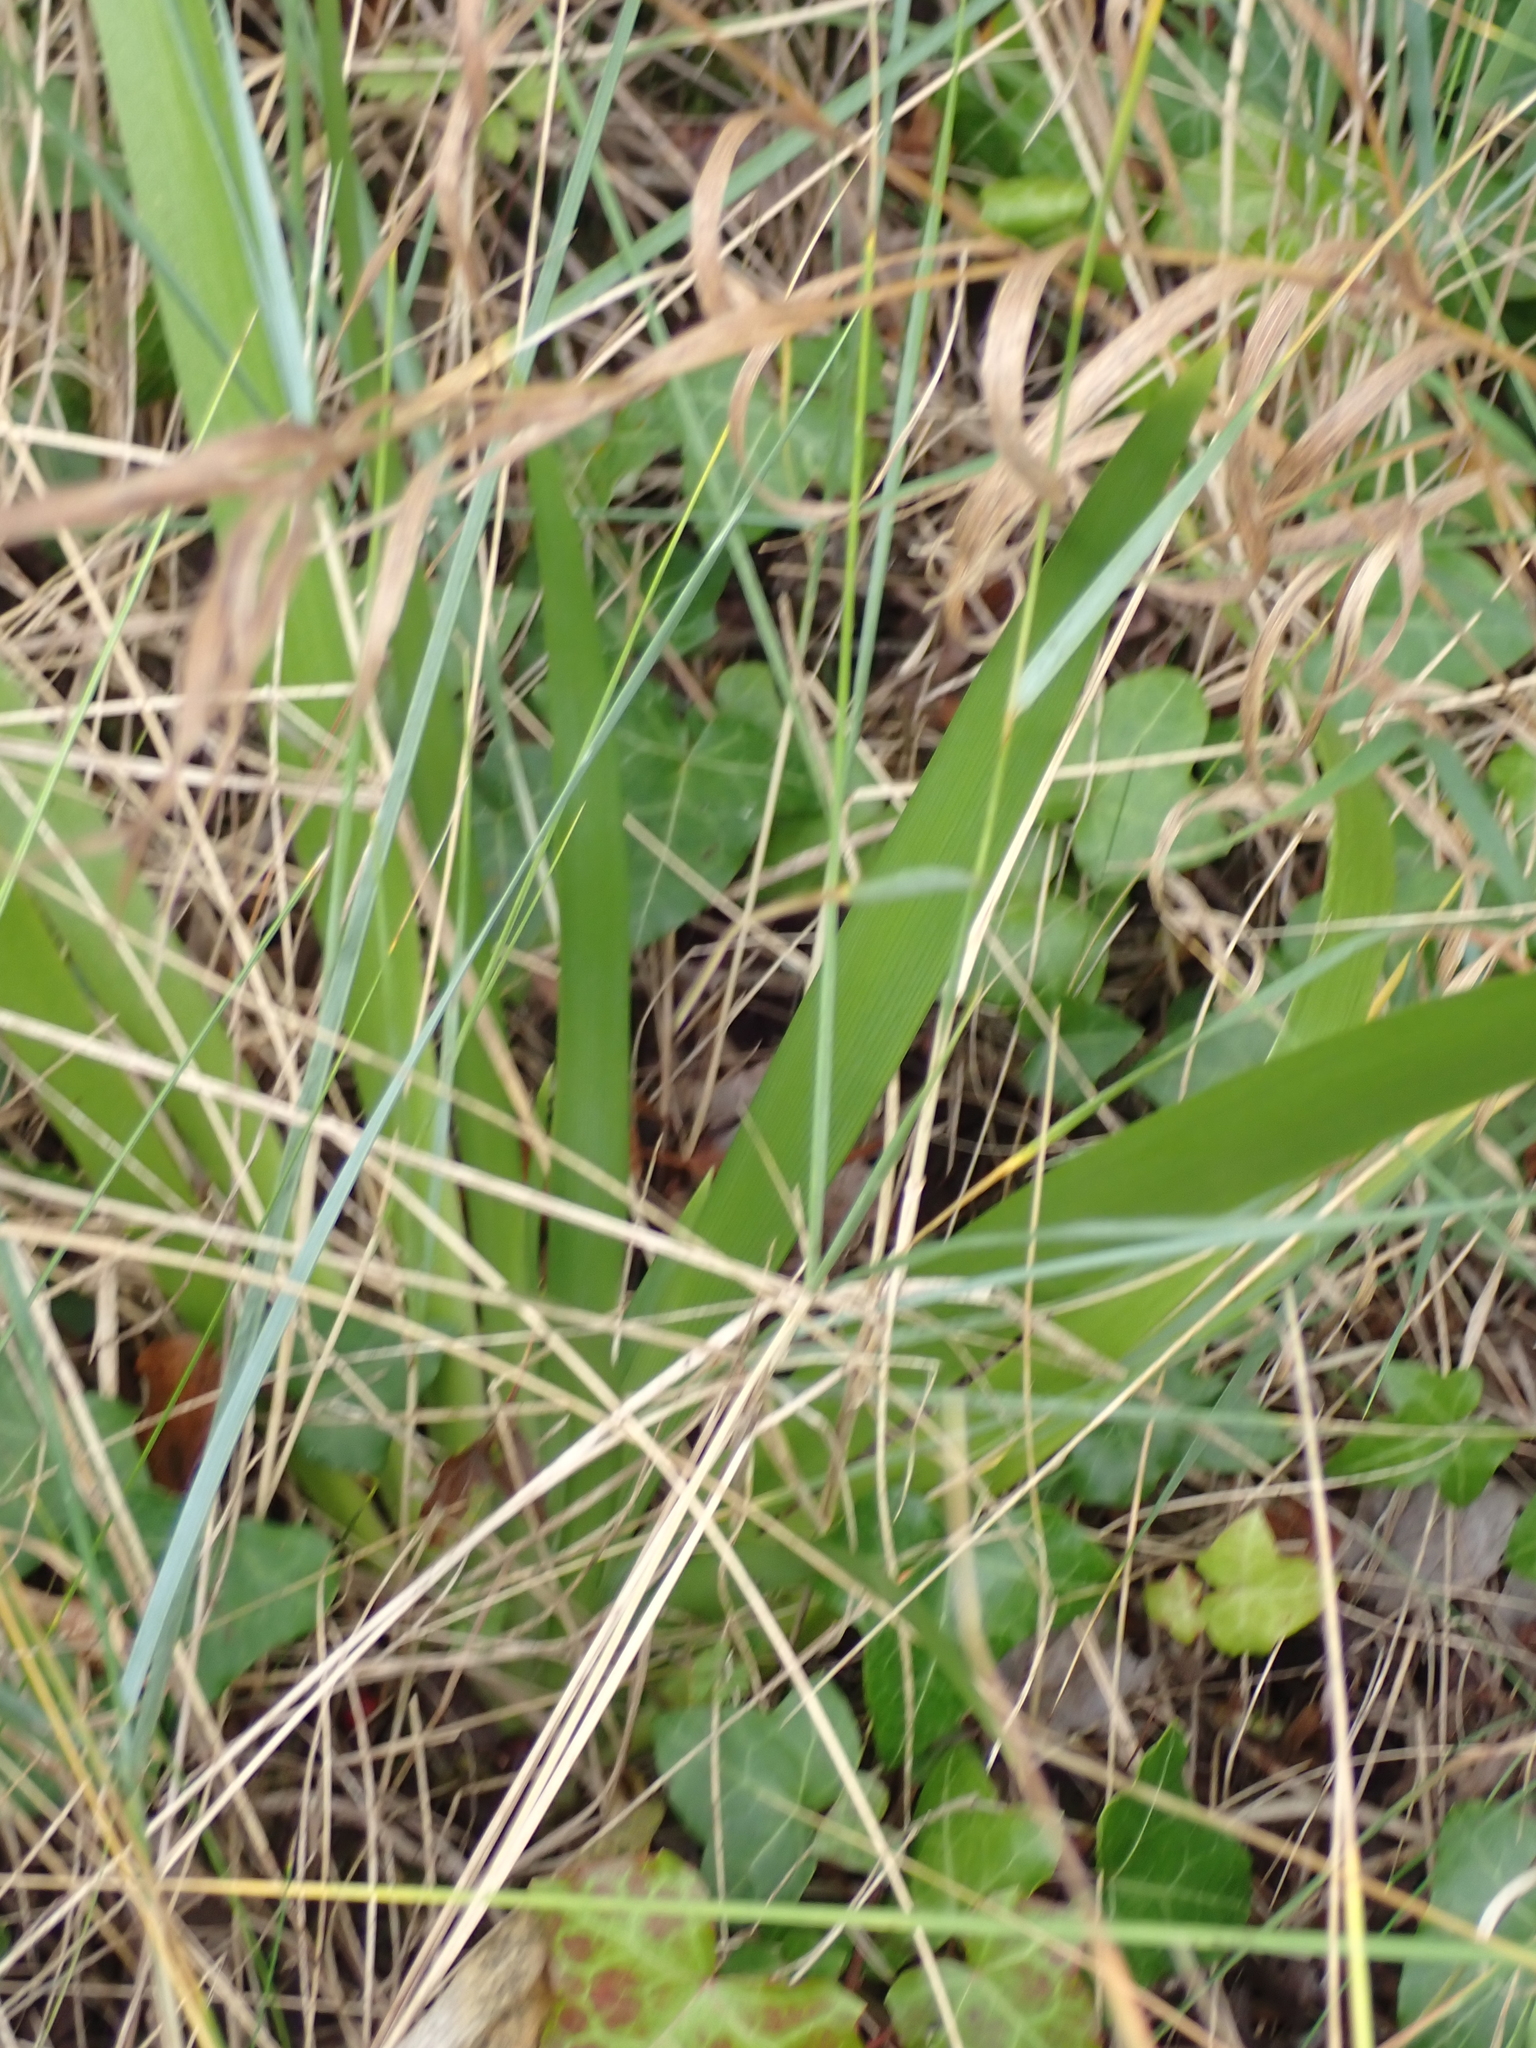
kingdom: Plantae
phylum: Tracheophyta
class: Liliopsida
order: Asparagales
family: Iridaceae
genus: Iris
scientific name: Iris foetidissima
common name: Stinking iris
